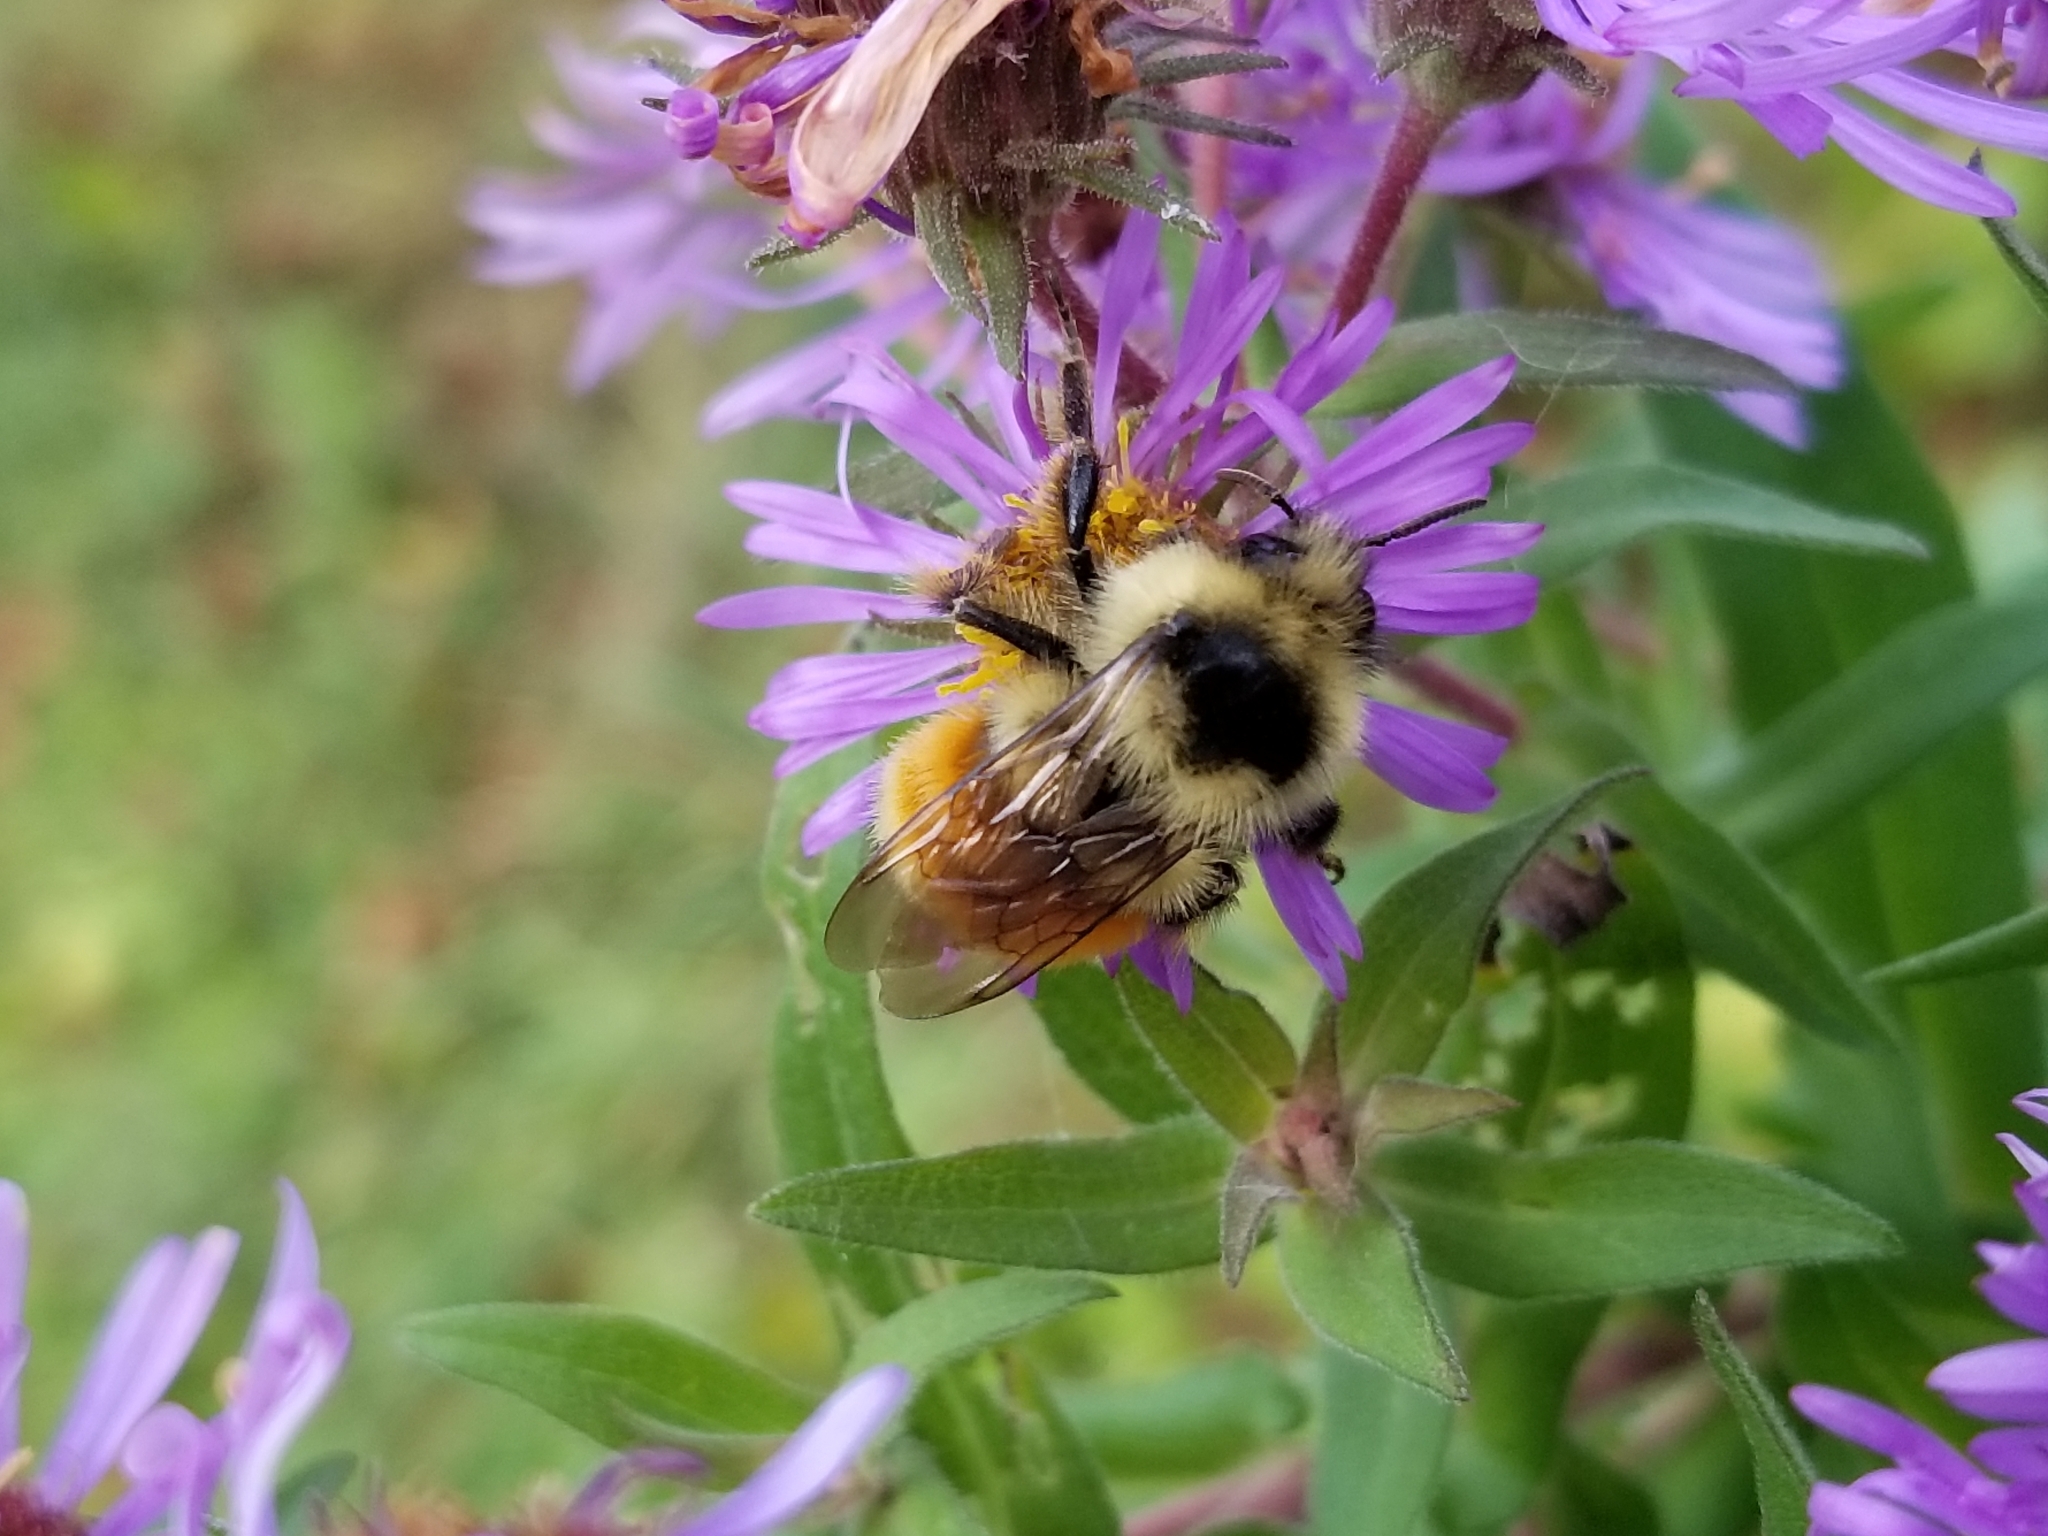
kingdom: Animalia
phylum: Arthropoda
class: Insecta
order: Hymenoptera
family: Apidae
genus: Bombus
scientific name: Bombus ternarius
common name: Tri-colored bumble bee
